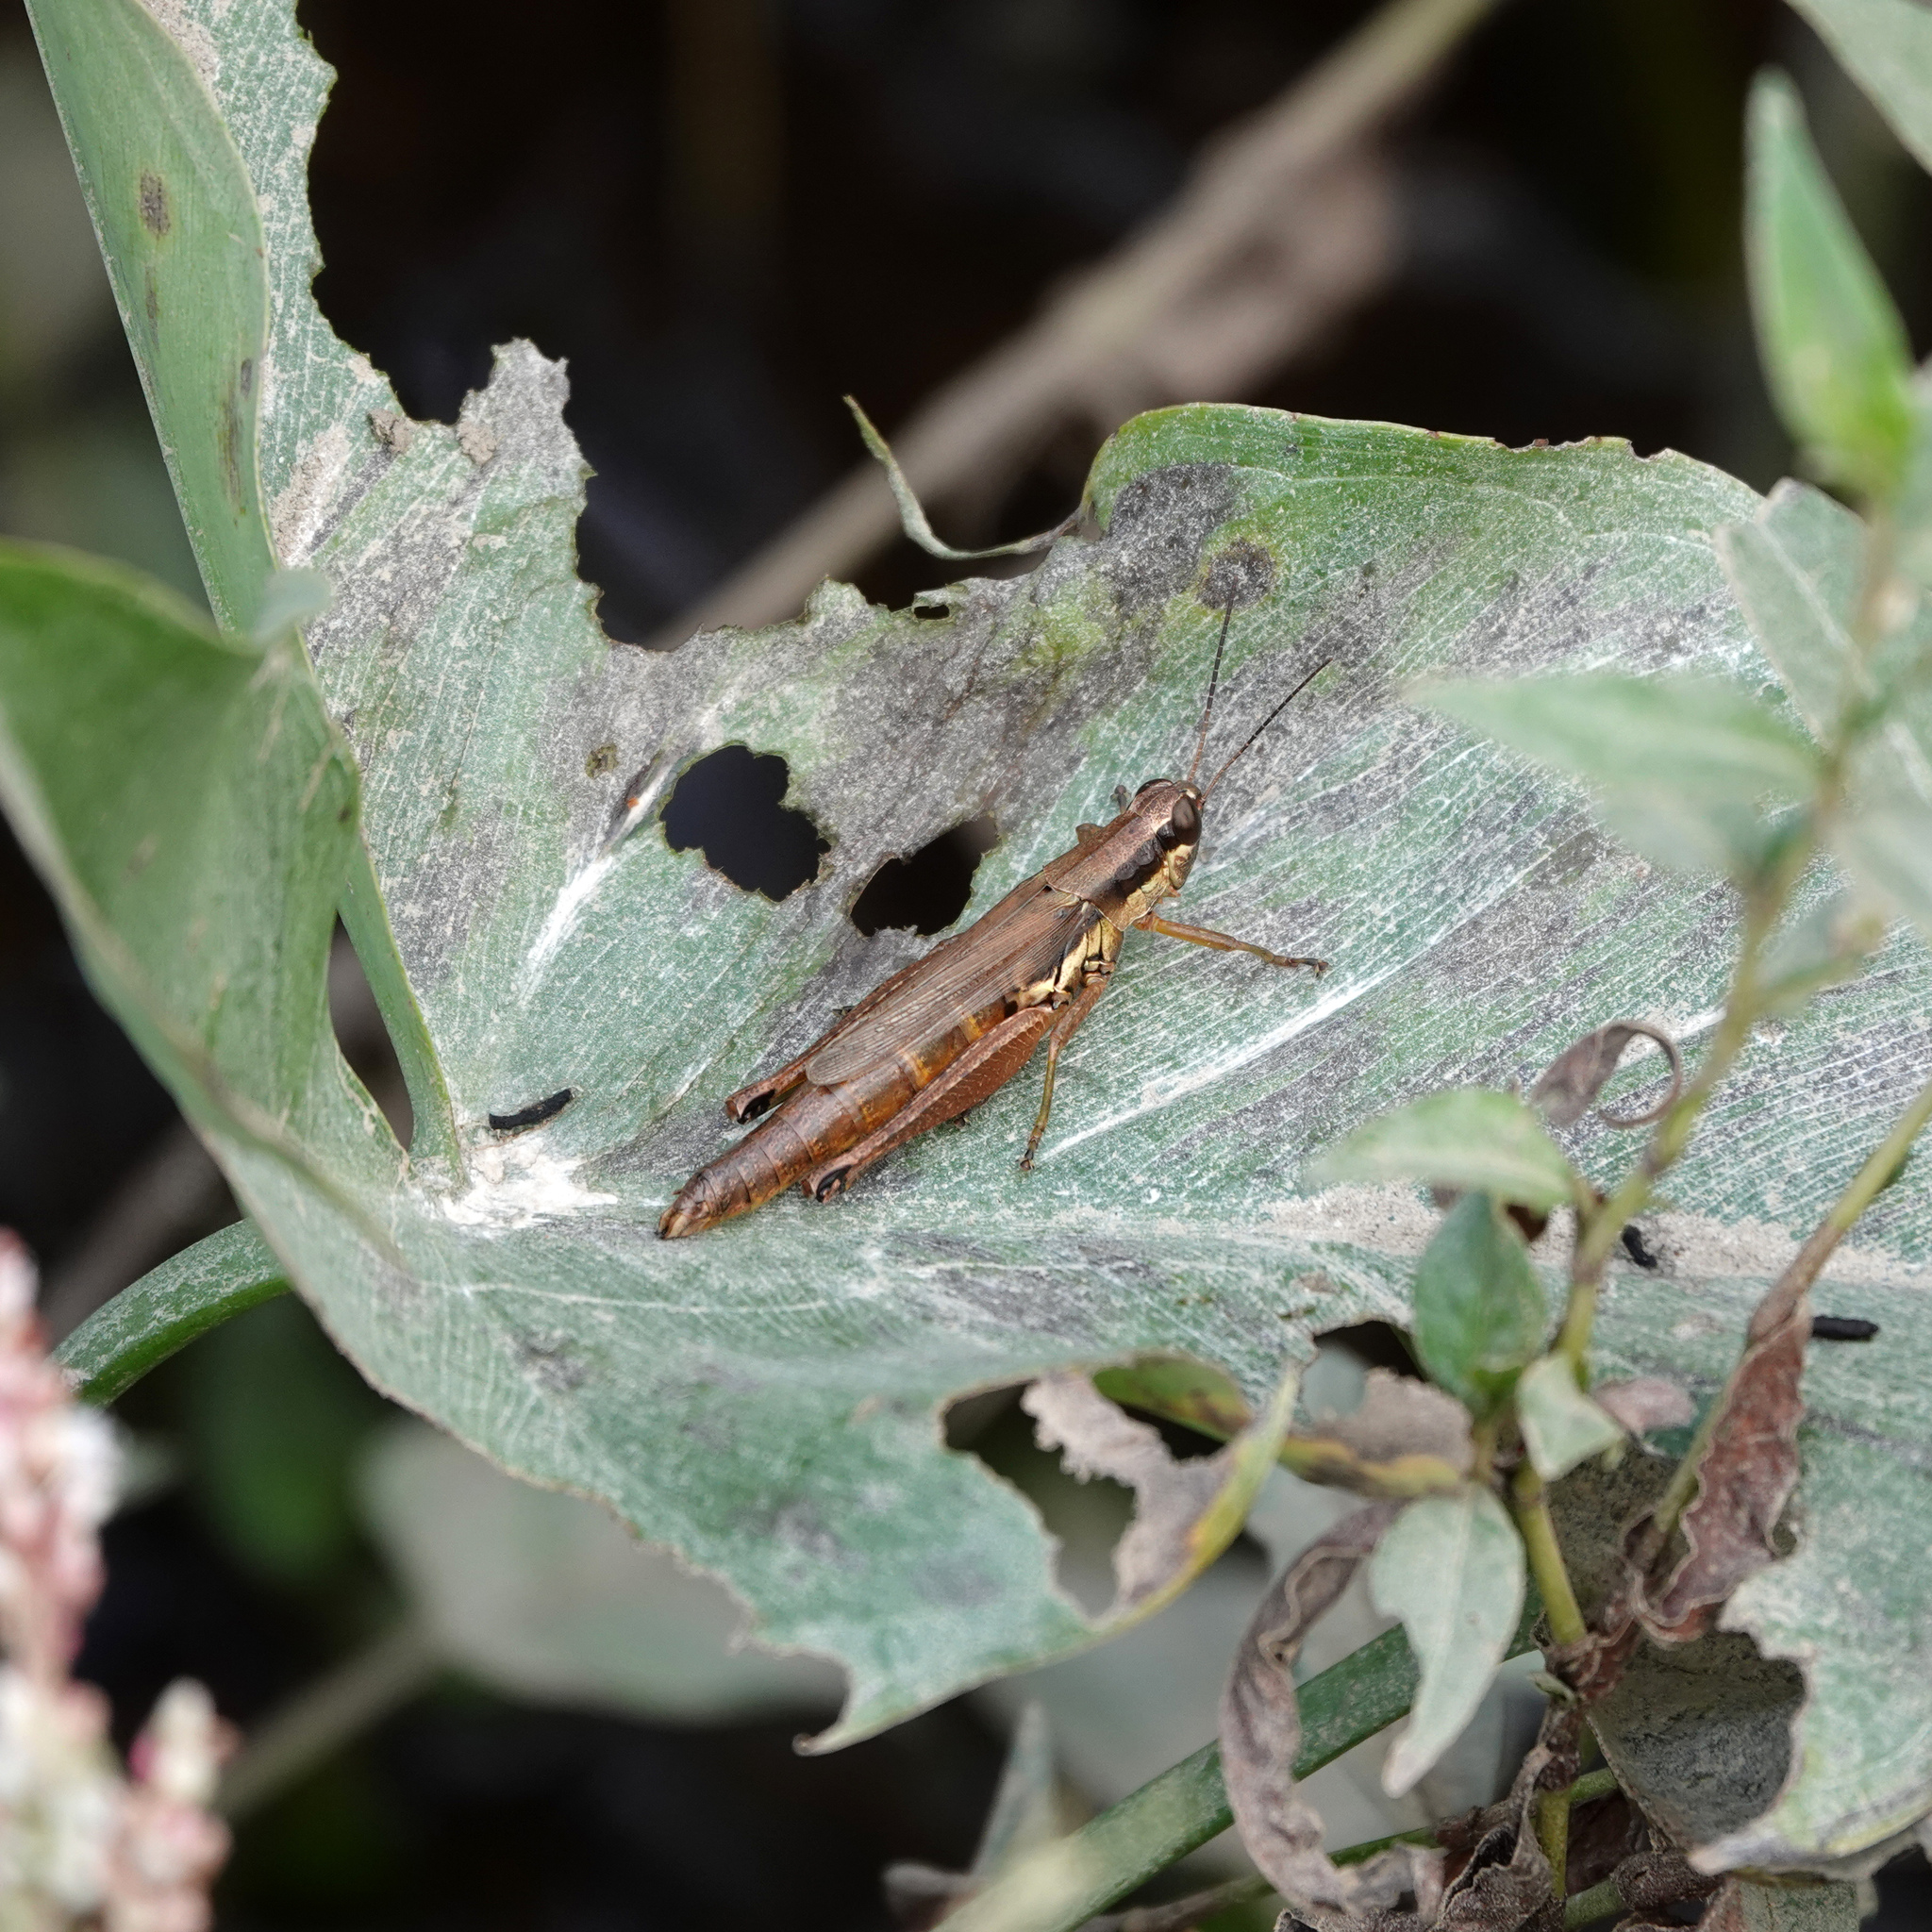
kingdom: Animalia
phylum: Arthropoda
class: Insecta
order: Orthoptera
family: Acrididae
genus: Paroxya
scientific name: Paroxya clavuligera
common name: Olive-green swamp grasshopper
